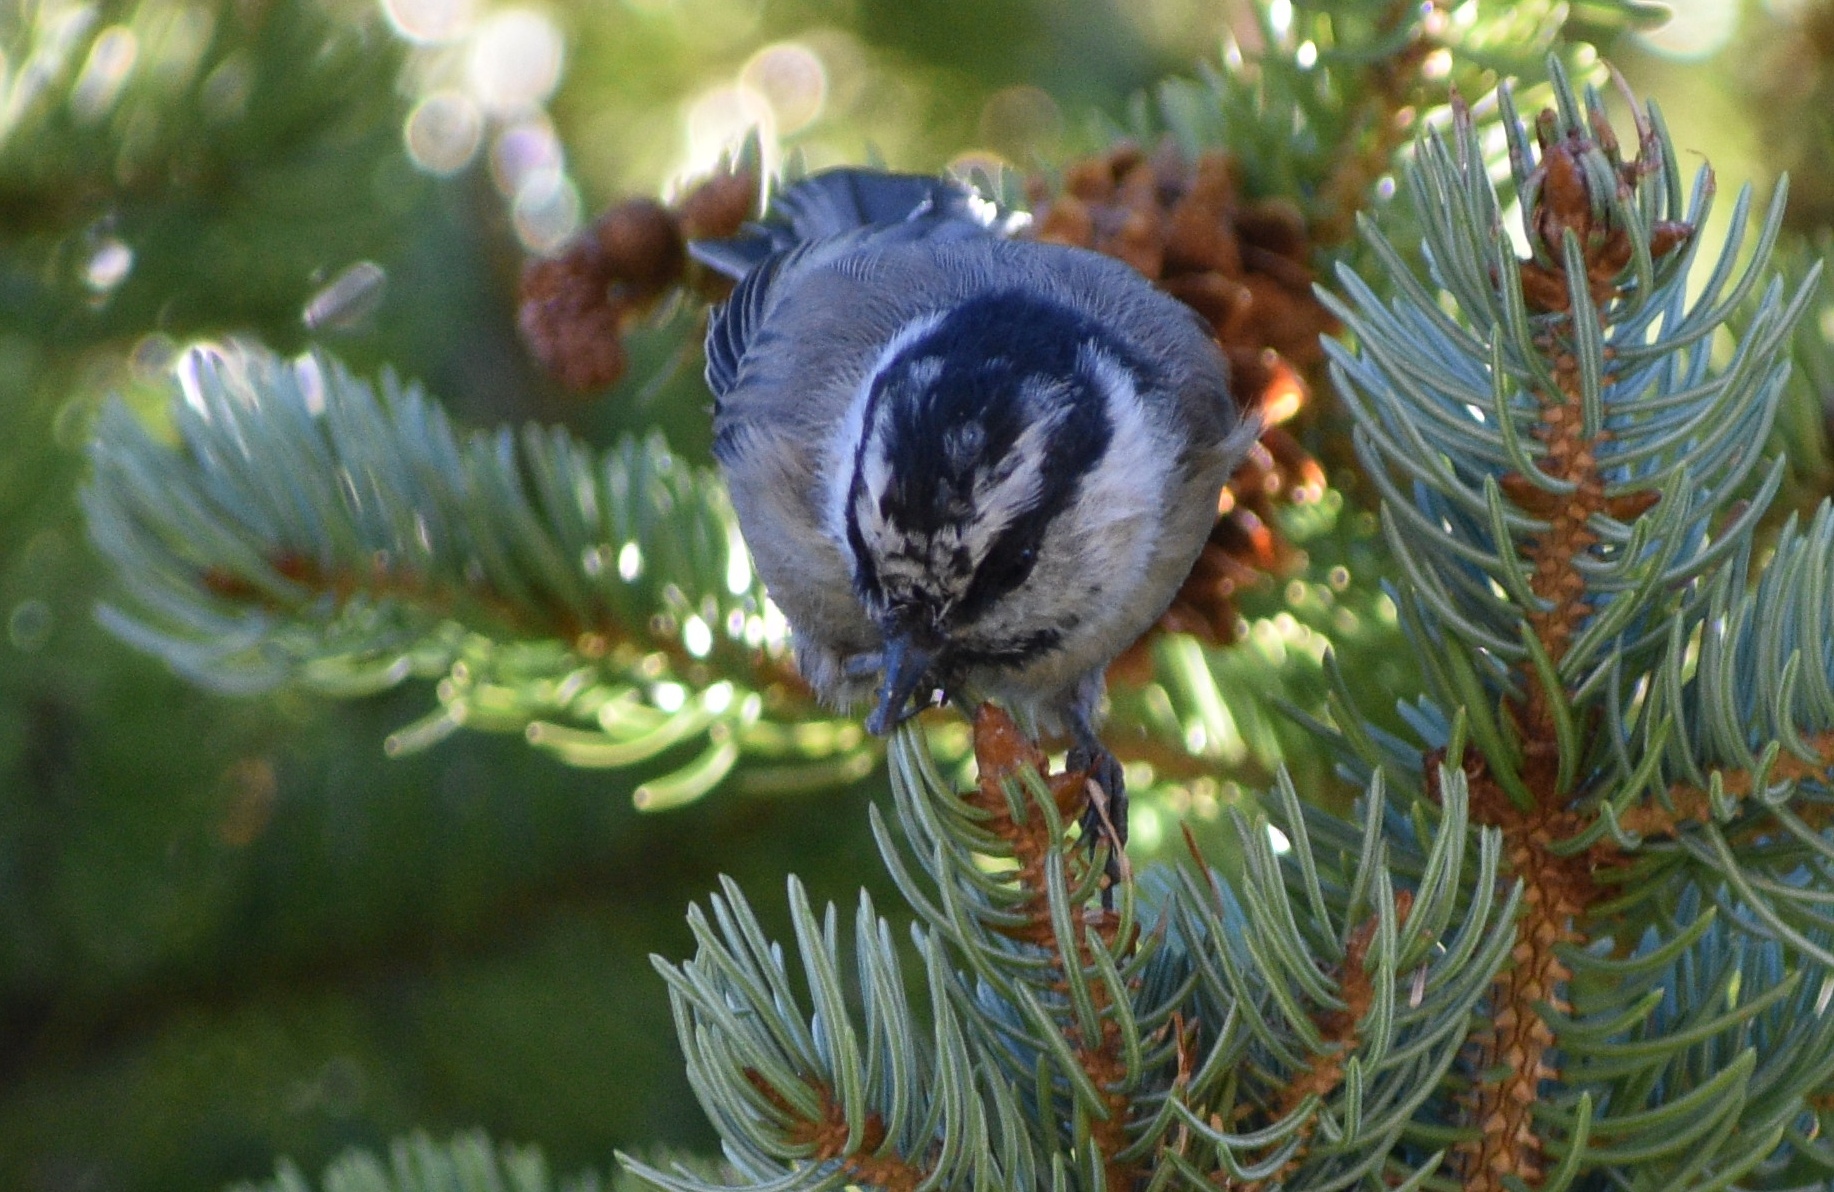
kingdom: Animalia
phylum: Chordata
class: Aves
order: Passeriformes
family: Paridae
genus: Poecile
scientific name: Poecile gambeli
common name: Mountain chickadee
